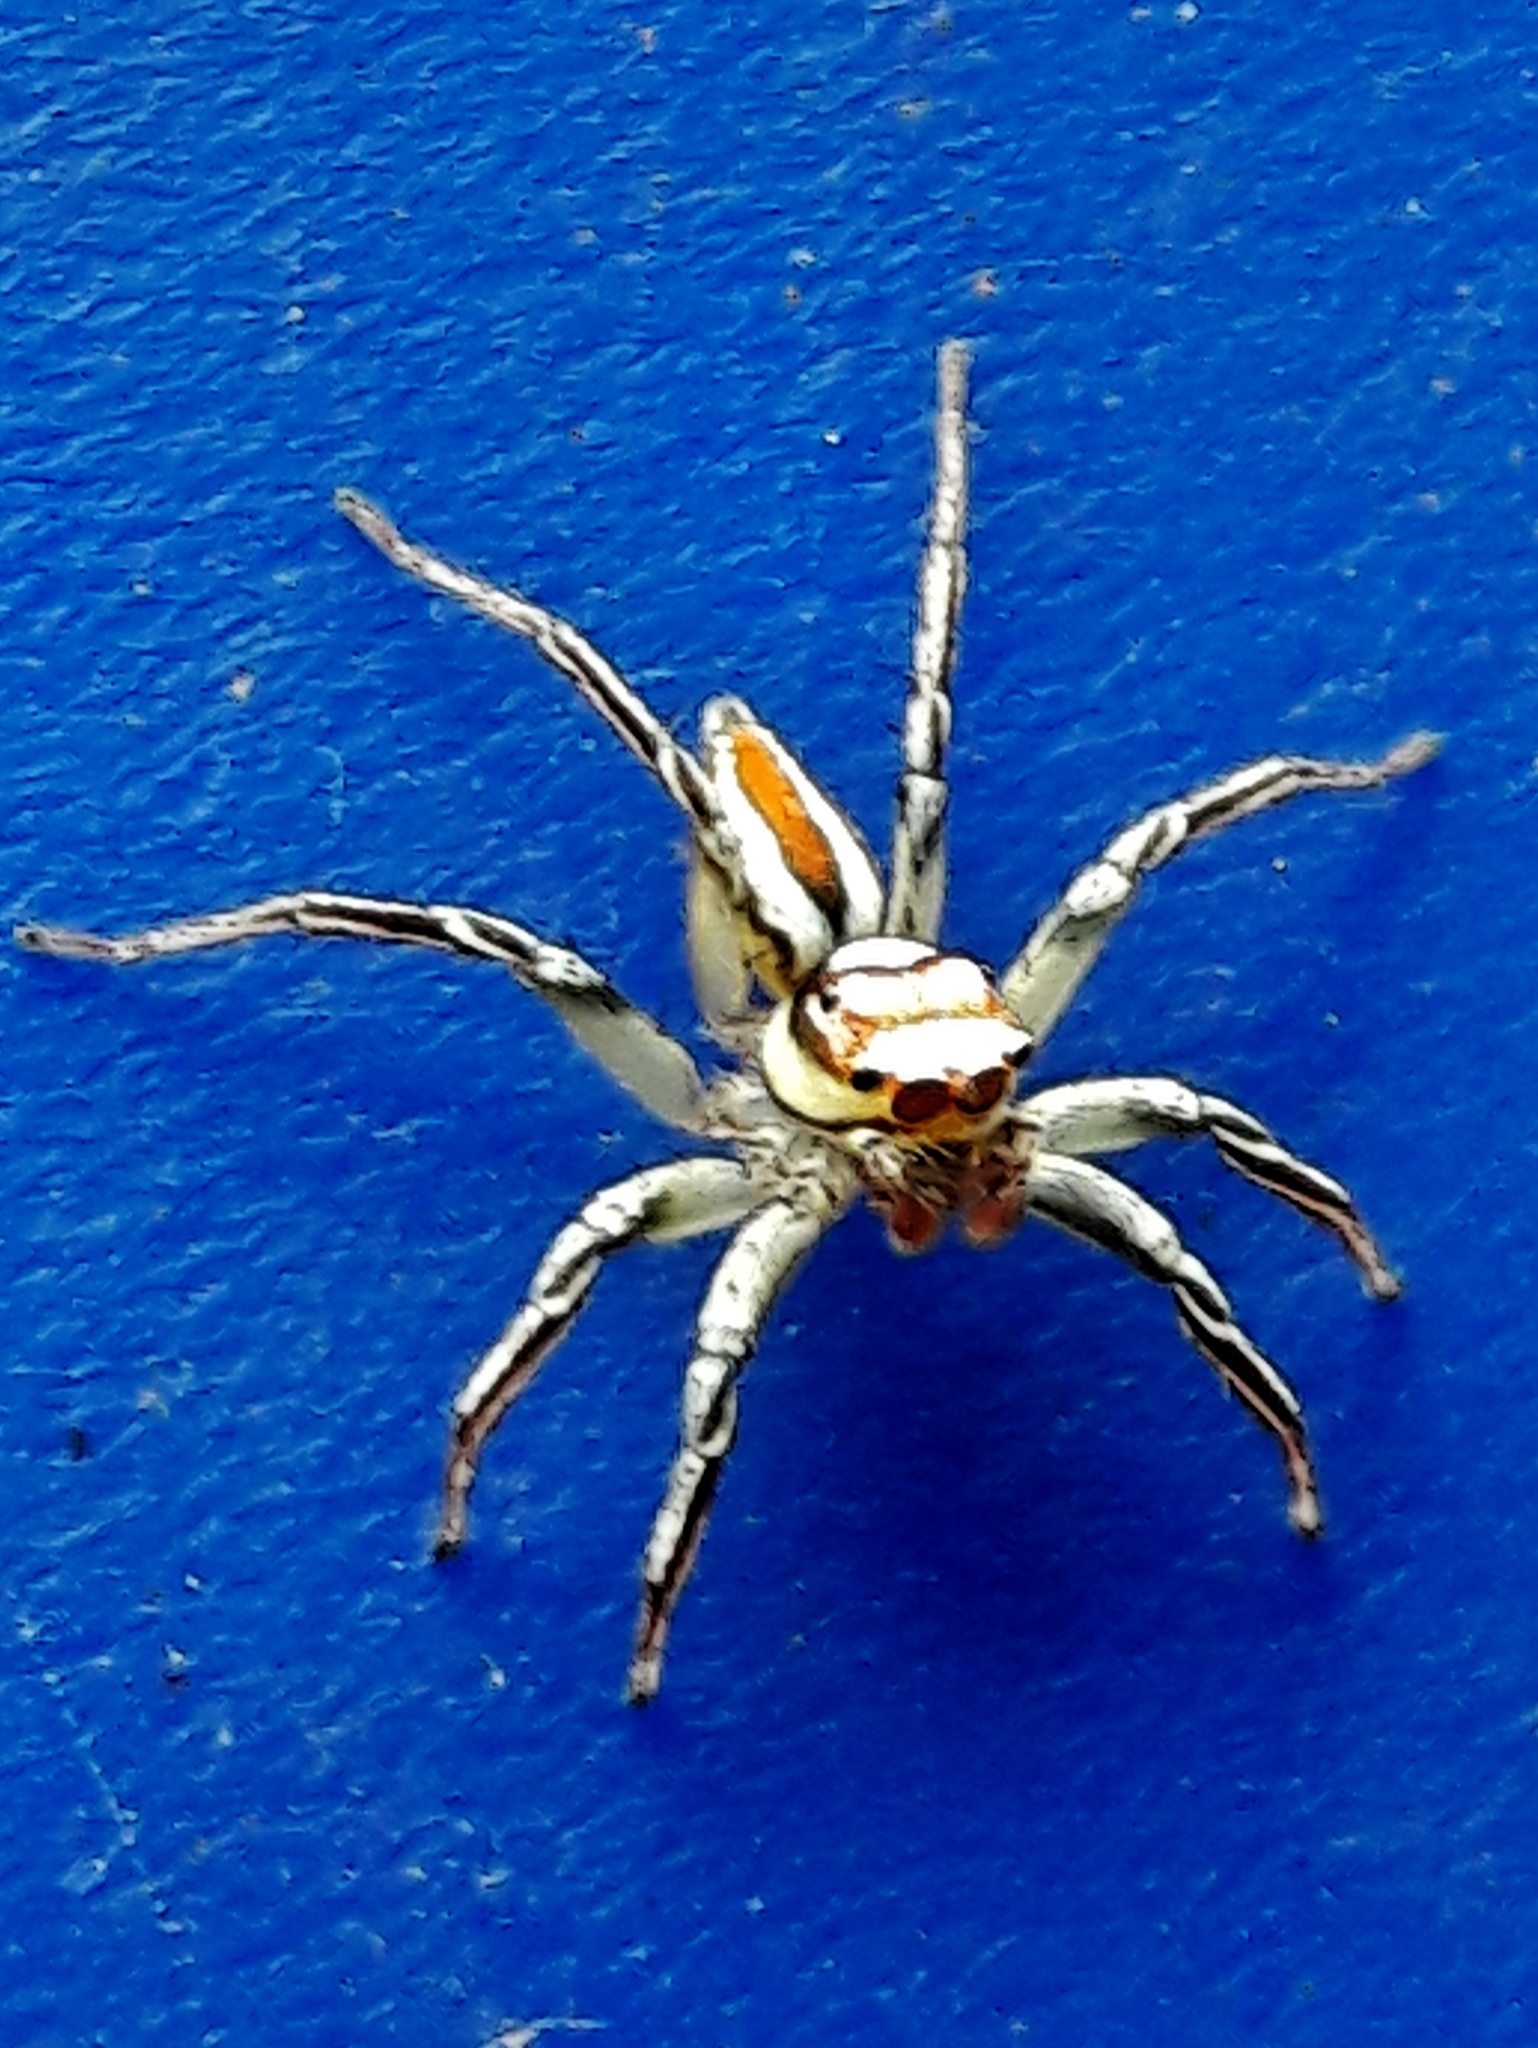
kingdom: Animalia
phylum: Arthropoda
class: Arachnida
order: Araneae
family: Salticidae
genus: Chira
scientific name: Chira simoni
